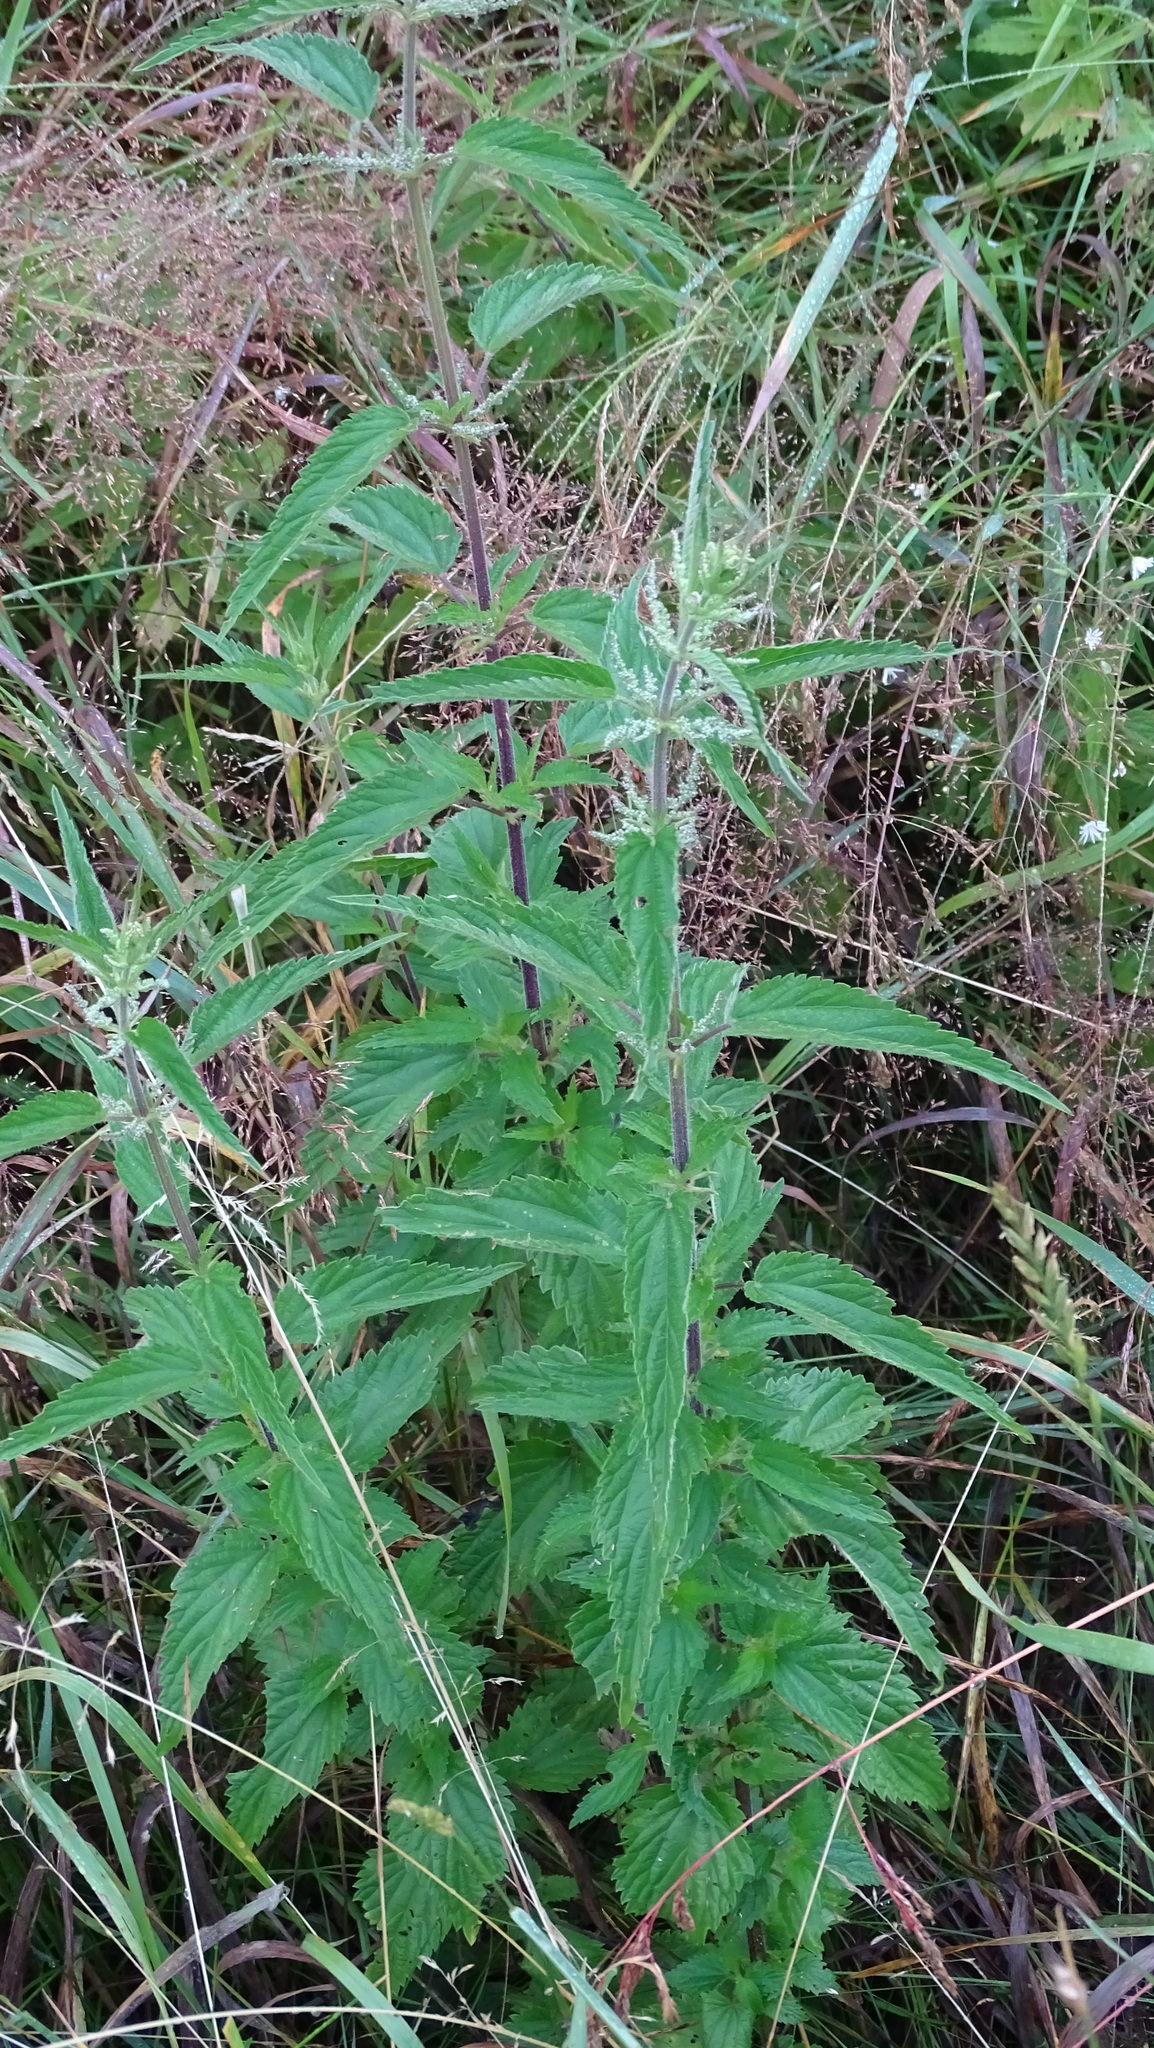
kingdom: Plantae
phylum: Tracheophyta
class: Magnoliopsida
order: Rosales
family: Urticaceae
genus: Urtica
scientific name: Urtica dioica
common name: Common nettle
